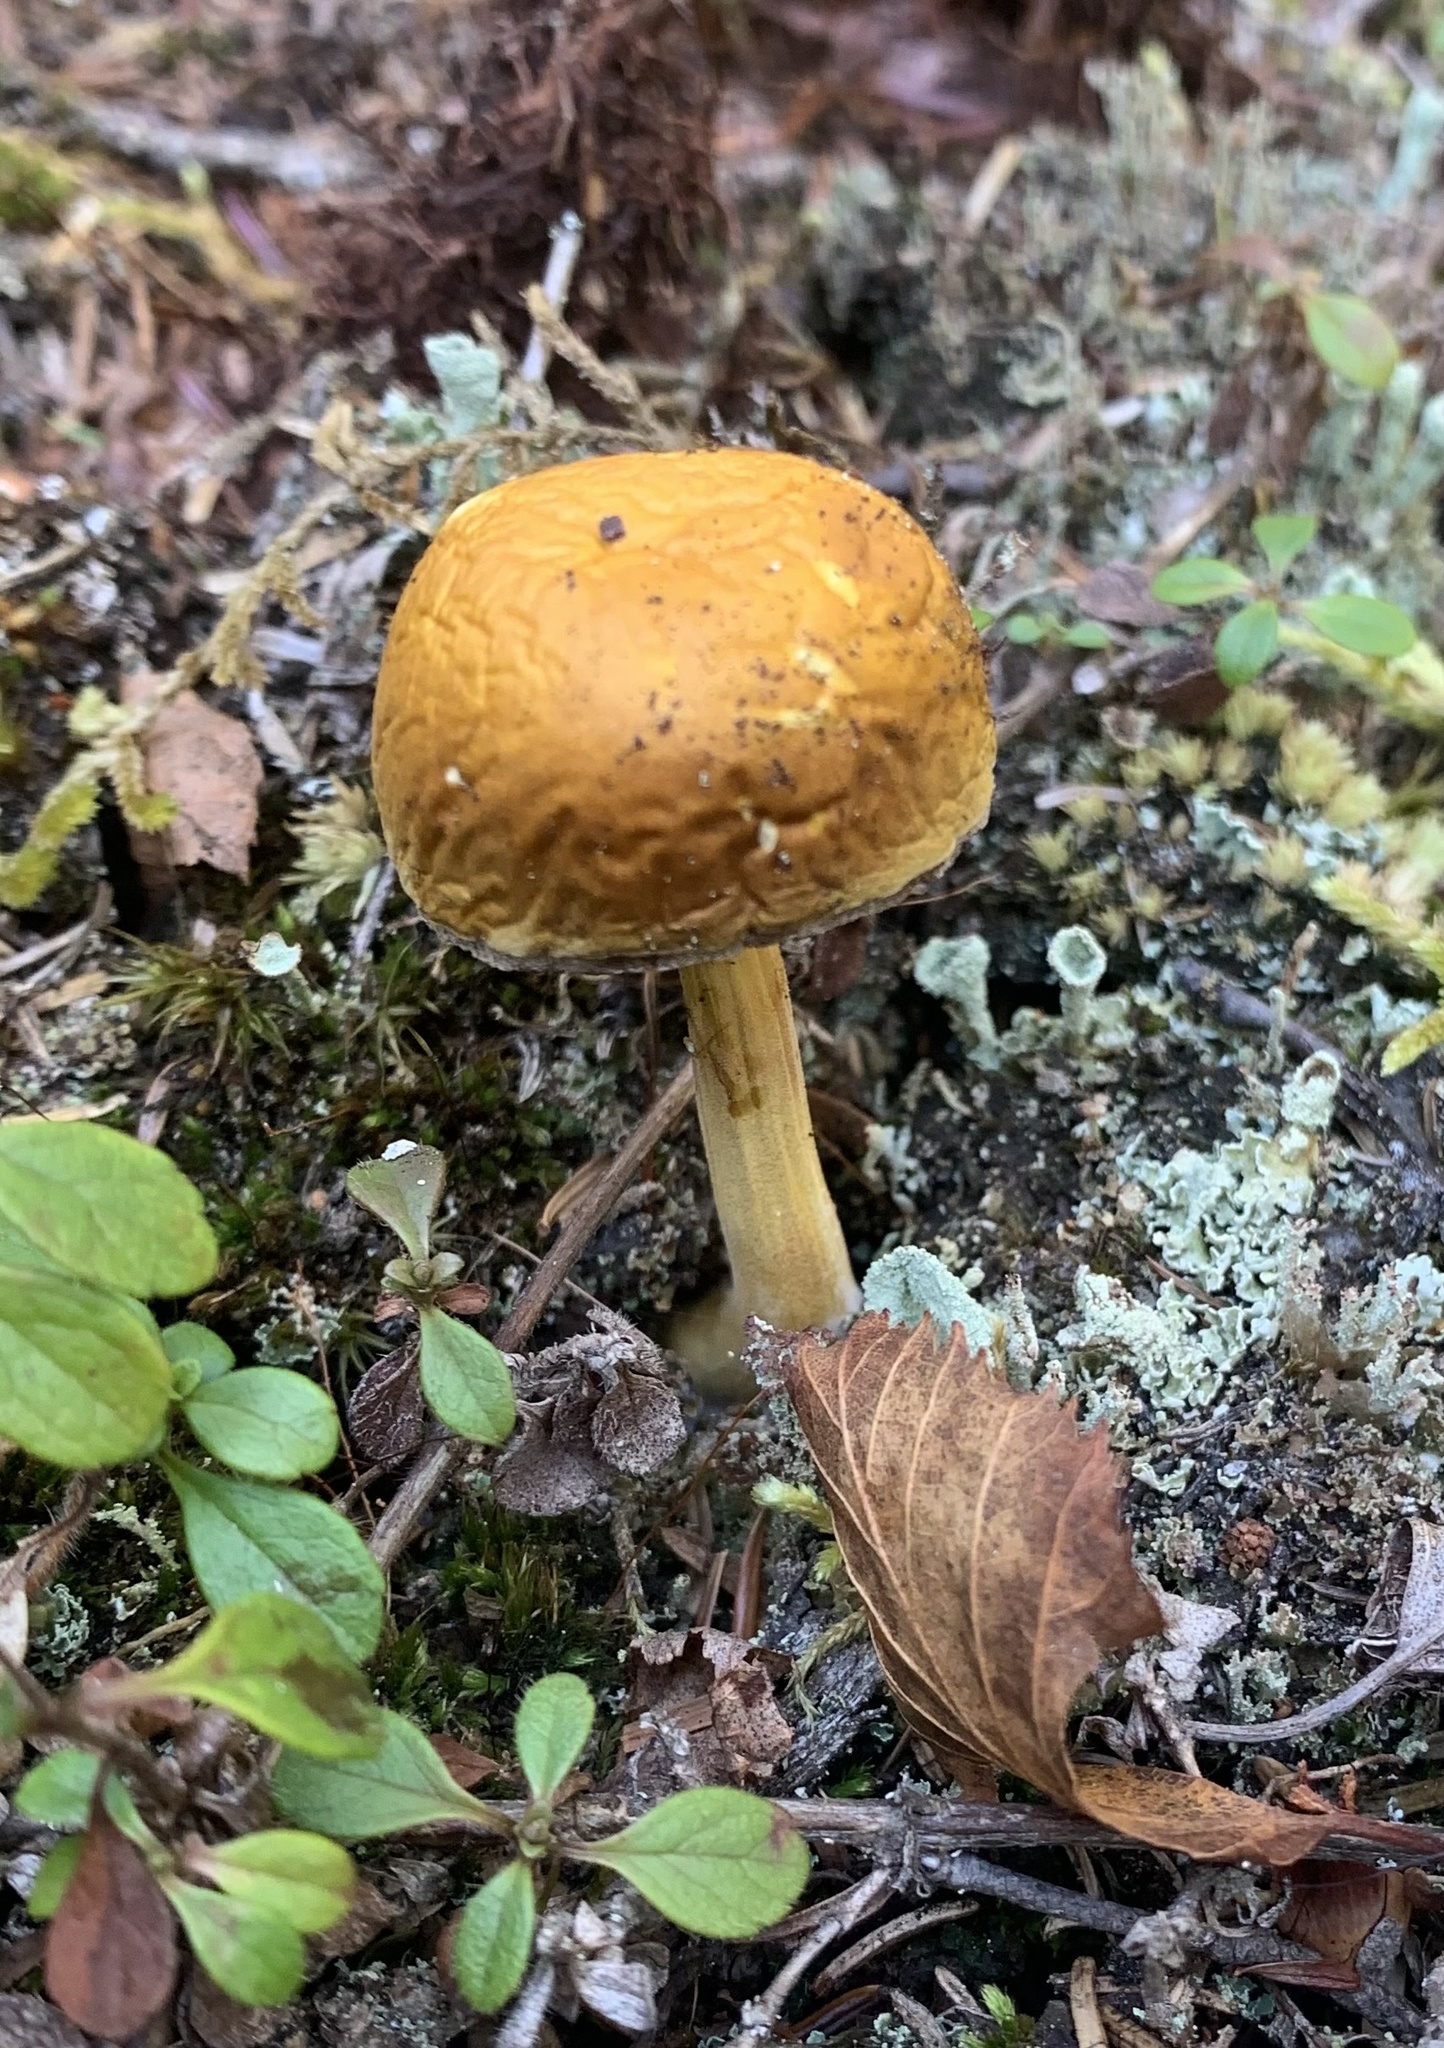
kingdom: Fungi
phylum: Basidiomycota
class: Agaricomycetes
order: Boletales
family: Boletaceae
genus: Austroboletus
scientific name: Austroboletus gracilis
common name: Graceful bolete
